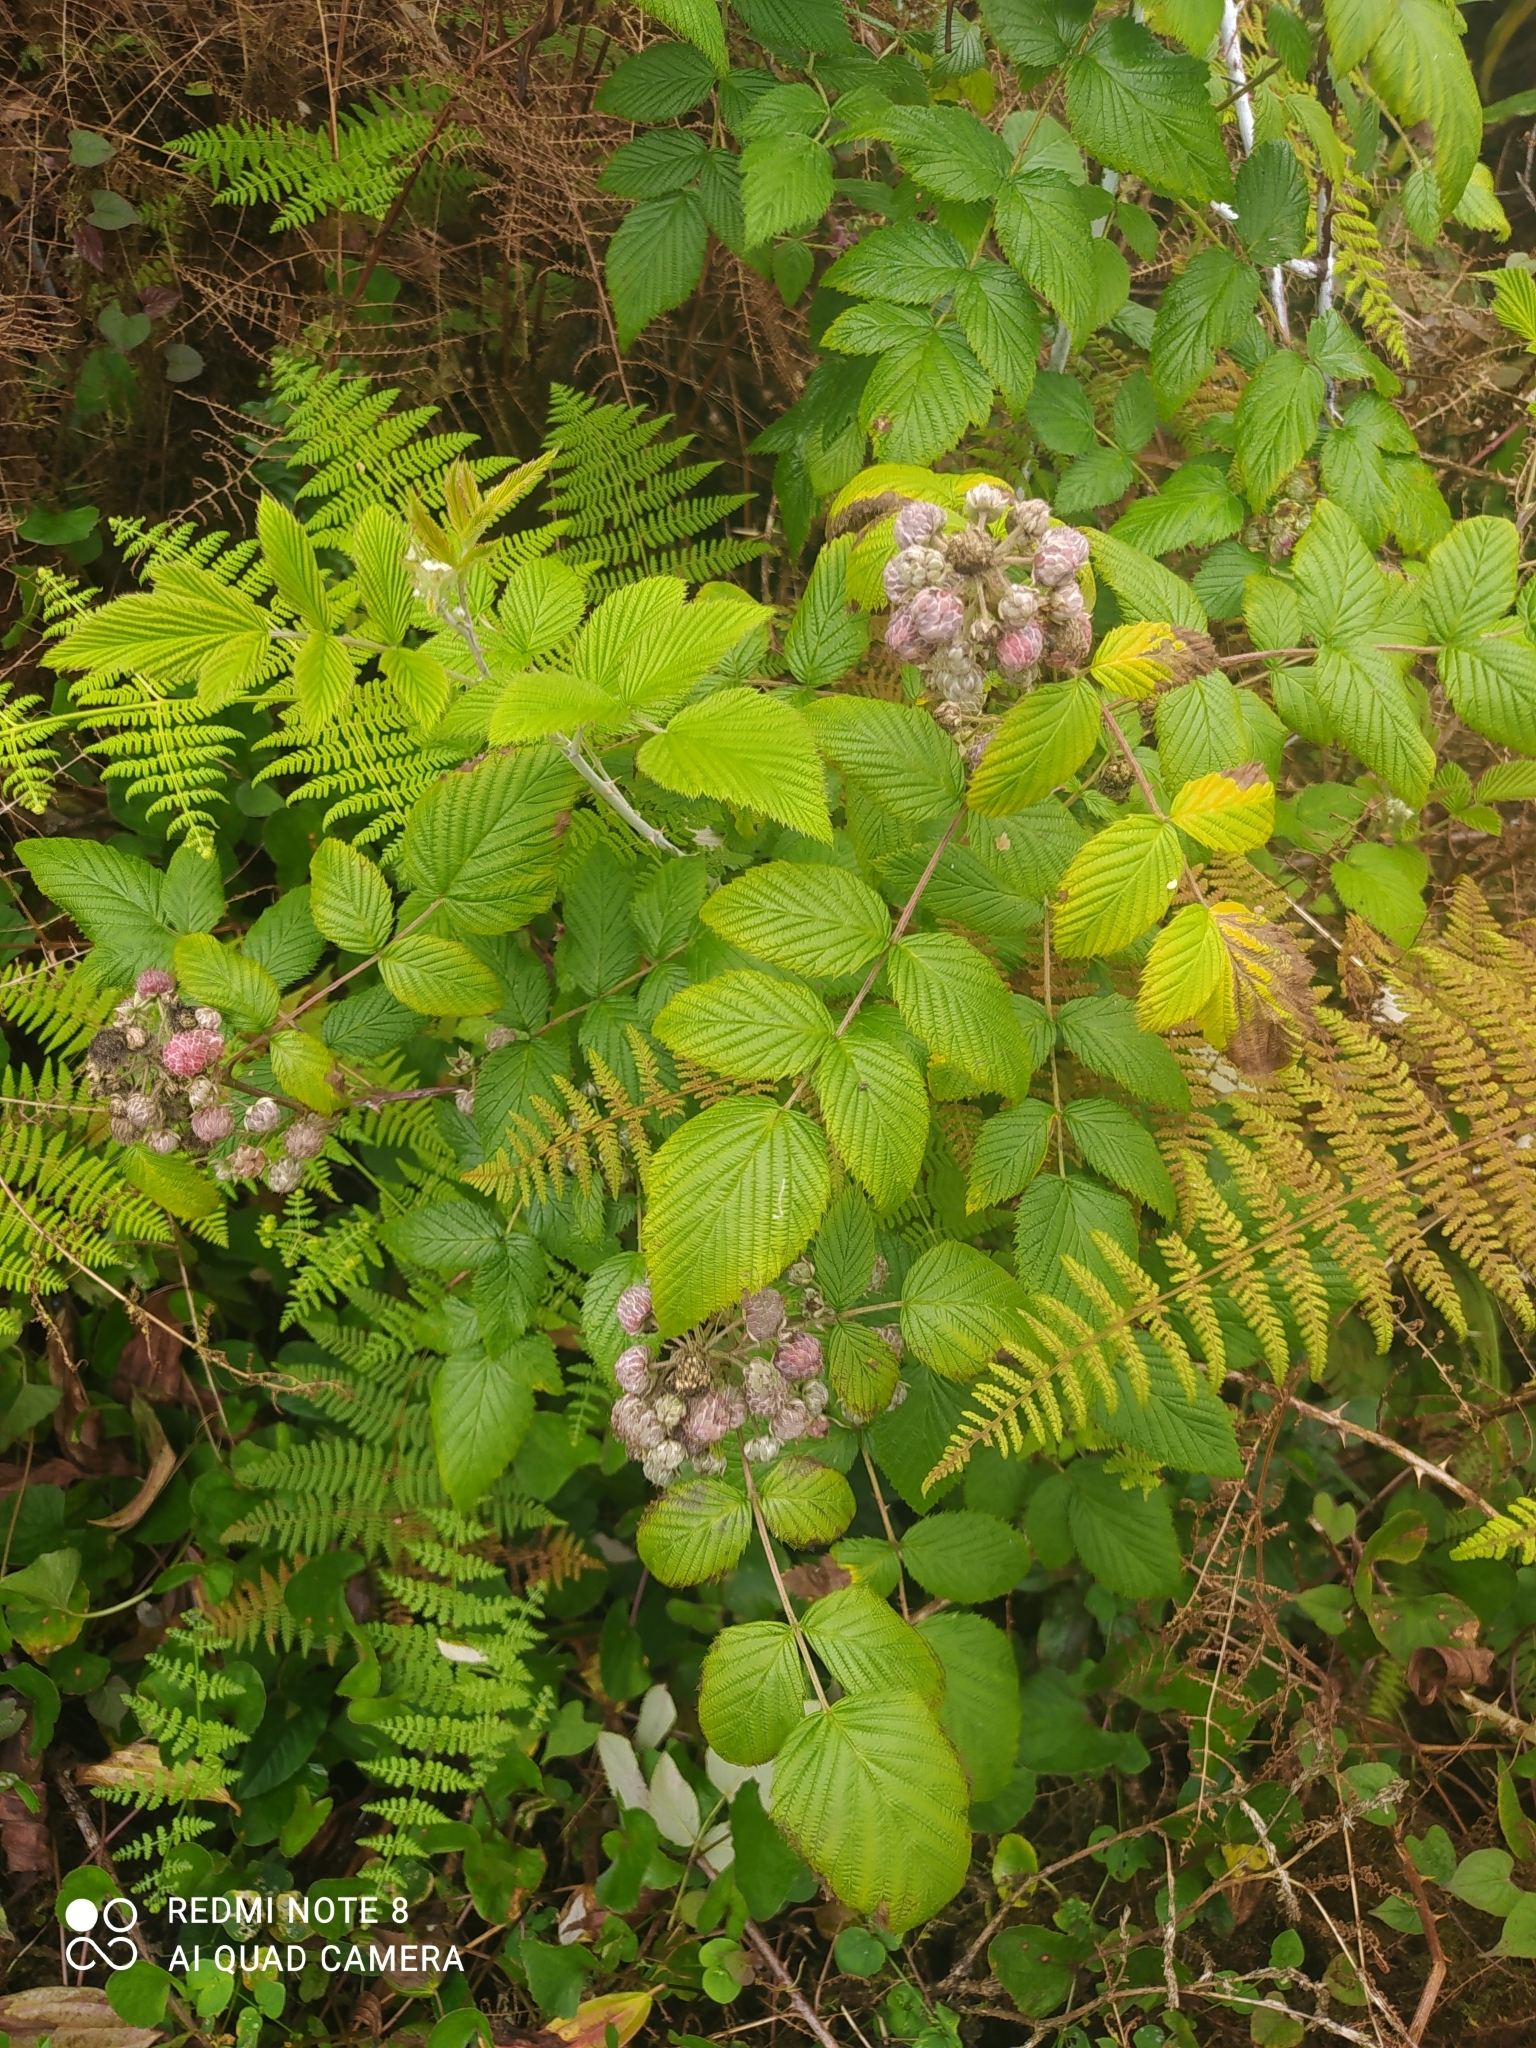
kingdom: Plantae
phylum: Tracheophyta
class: Magnoliopsida
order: Rosales
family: Rosaceae
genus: Rubus
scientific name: Rubus niveus
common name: Snowpeaks raspberry
